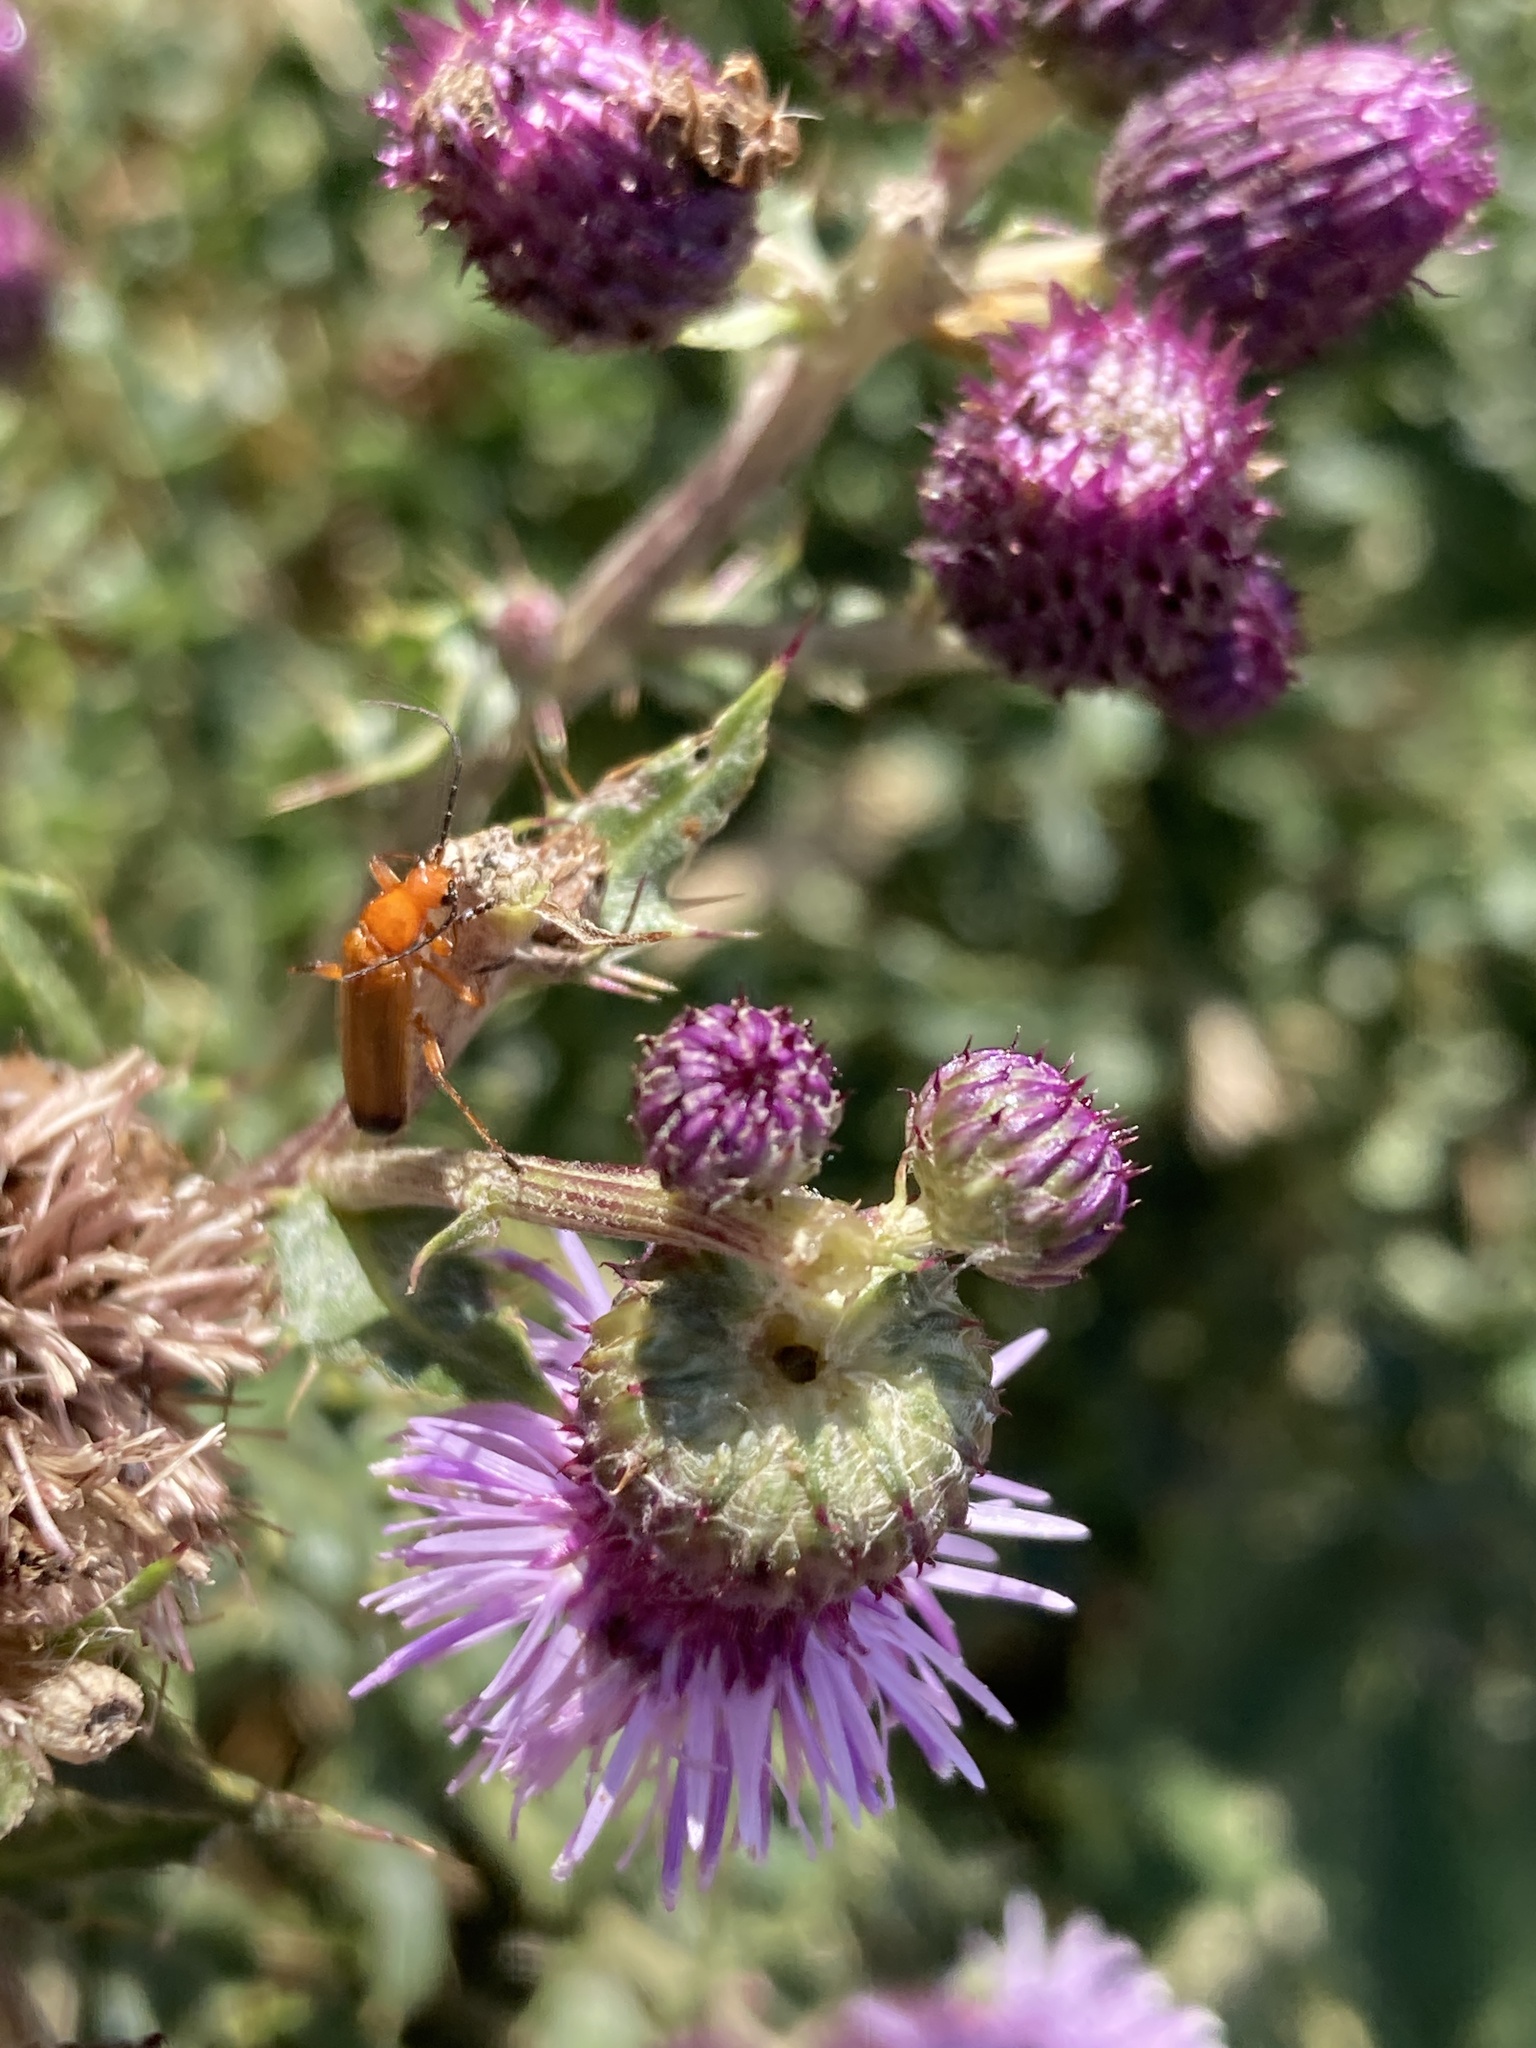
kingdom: Animalia
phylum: Arthropoda
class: Insecta
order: Coleoptera
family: Cantharidae
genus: Rhagonycha
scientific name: Rhagonycha fulva
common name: Common red soldier beetle
